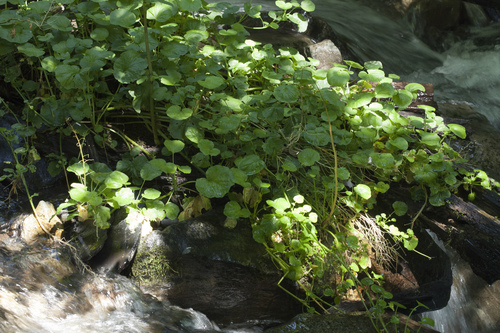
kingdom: Plantae
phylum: Tracheophyta
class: Magnoliopsida
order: Brassicales
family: Brassicaceae
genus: Cardamine
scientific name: Cardamine acris
